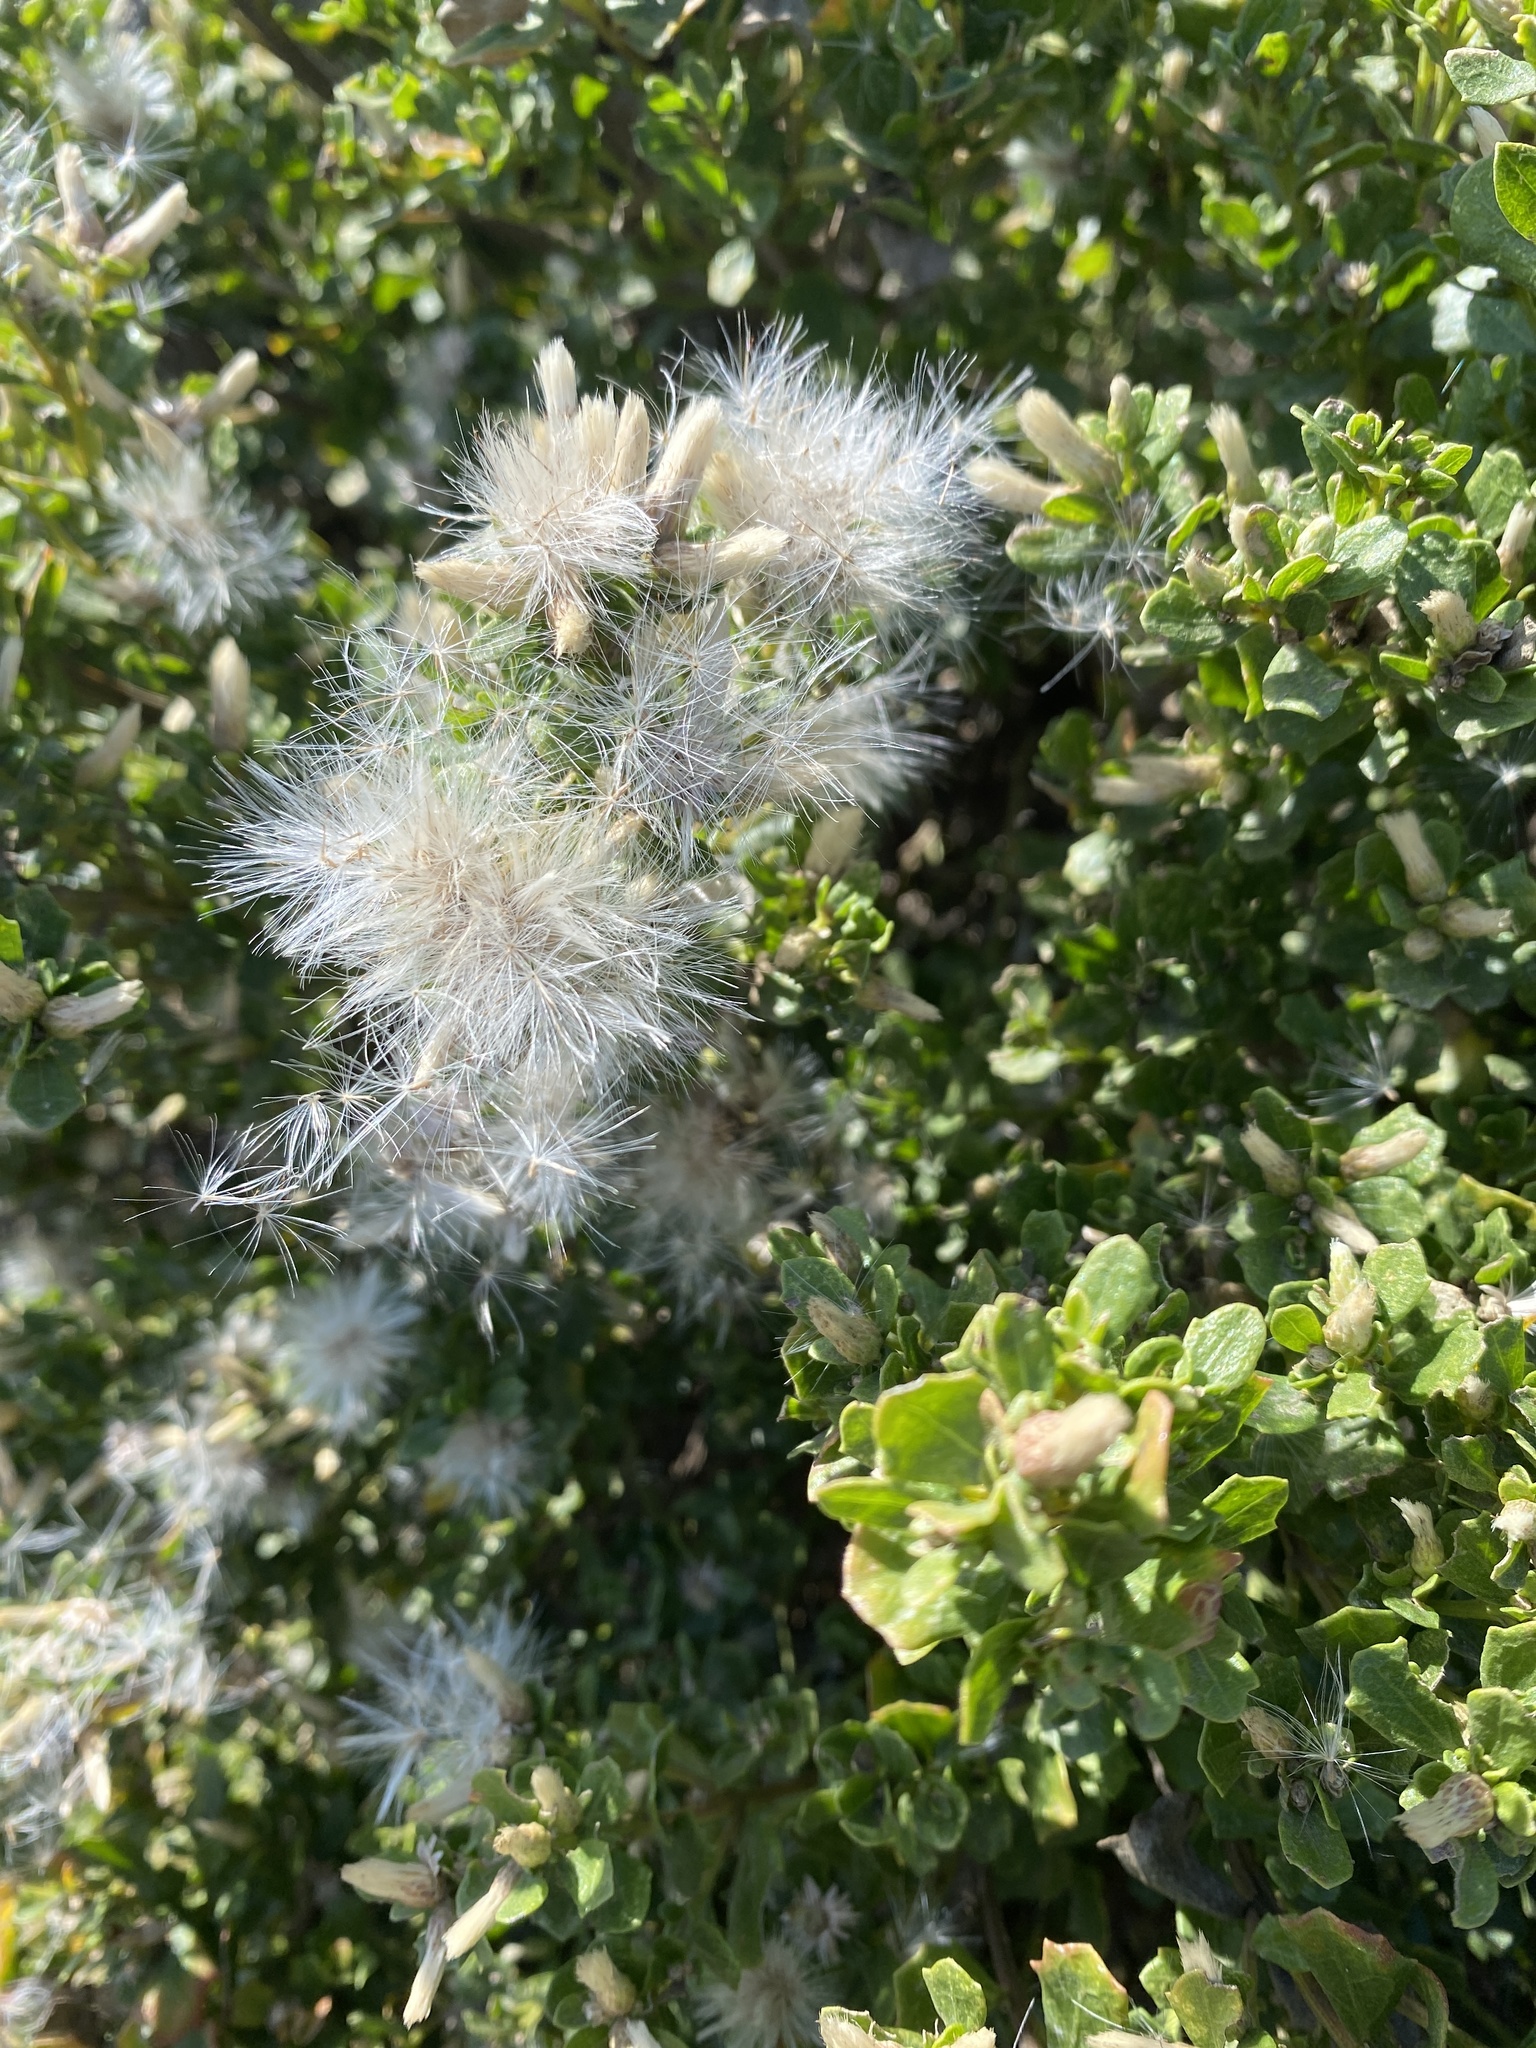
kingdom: Plantae
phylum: Tracheophyta
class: Magnoliopsida
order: Asterales
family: Asteraceae
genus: Baccharis
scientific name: Baccharis pilularis
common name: Coyotebrush
